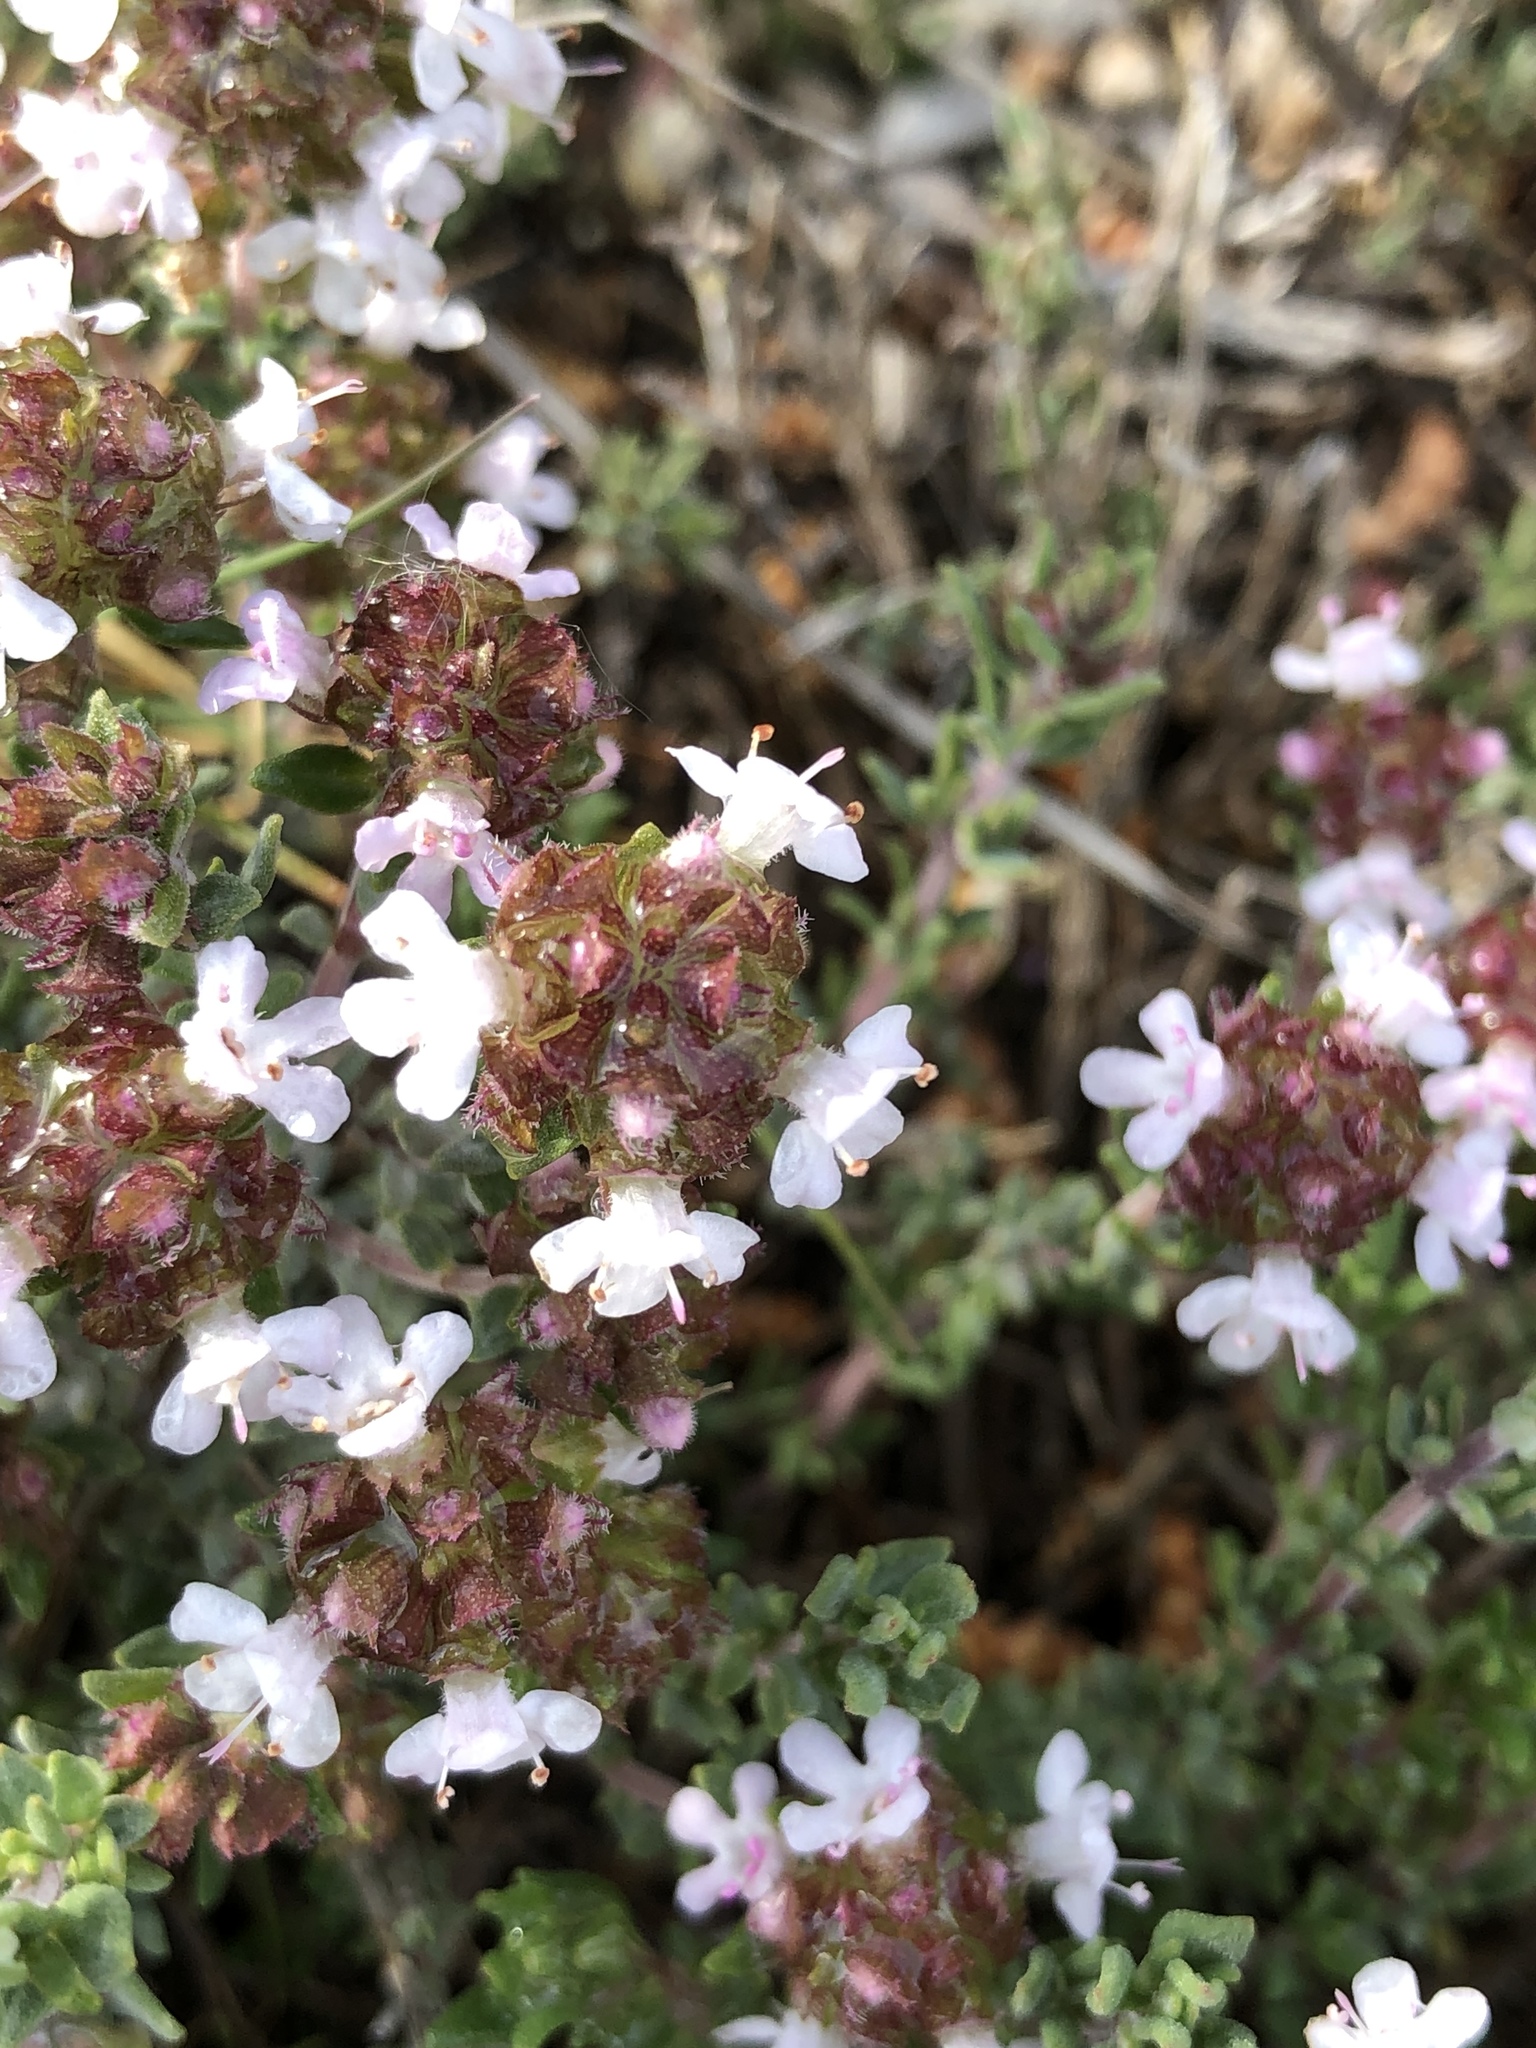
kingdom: Plantae
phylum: Tracheophyta
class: Magnoliopsida
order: Lamiales
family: Lamiaceae
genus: Thymus
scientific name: Thymus vulgaris
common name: Garden thyme
